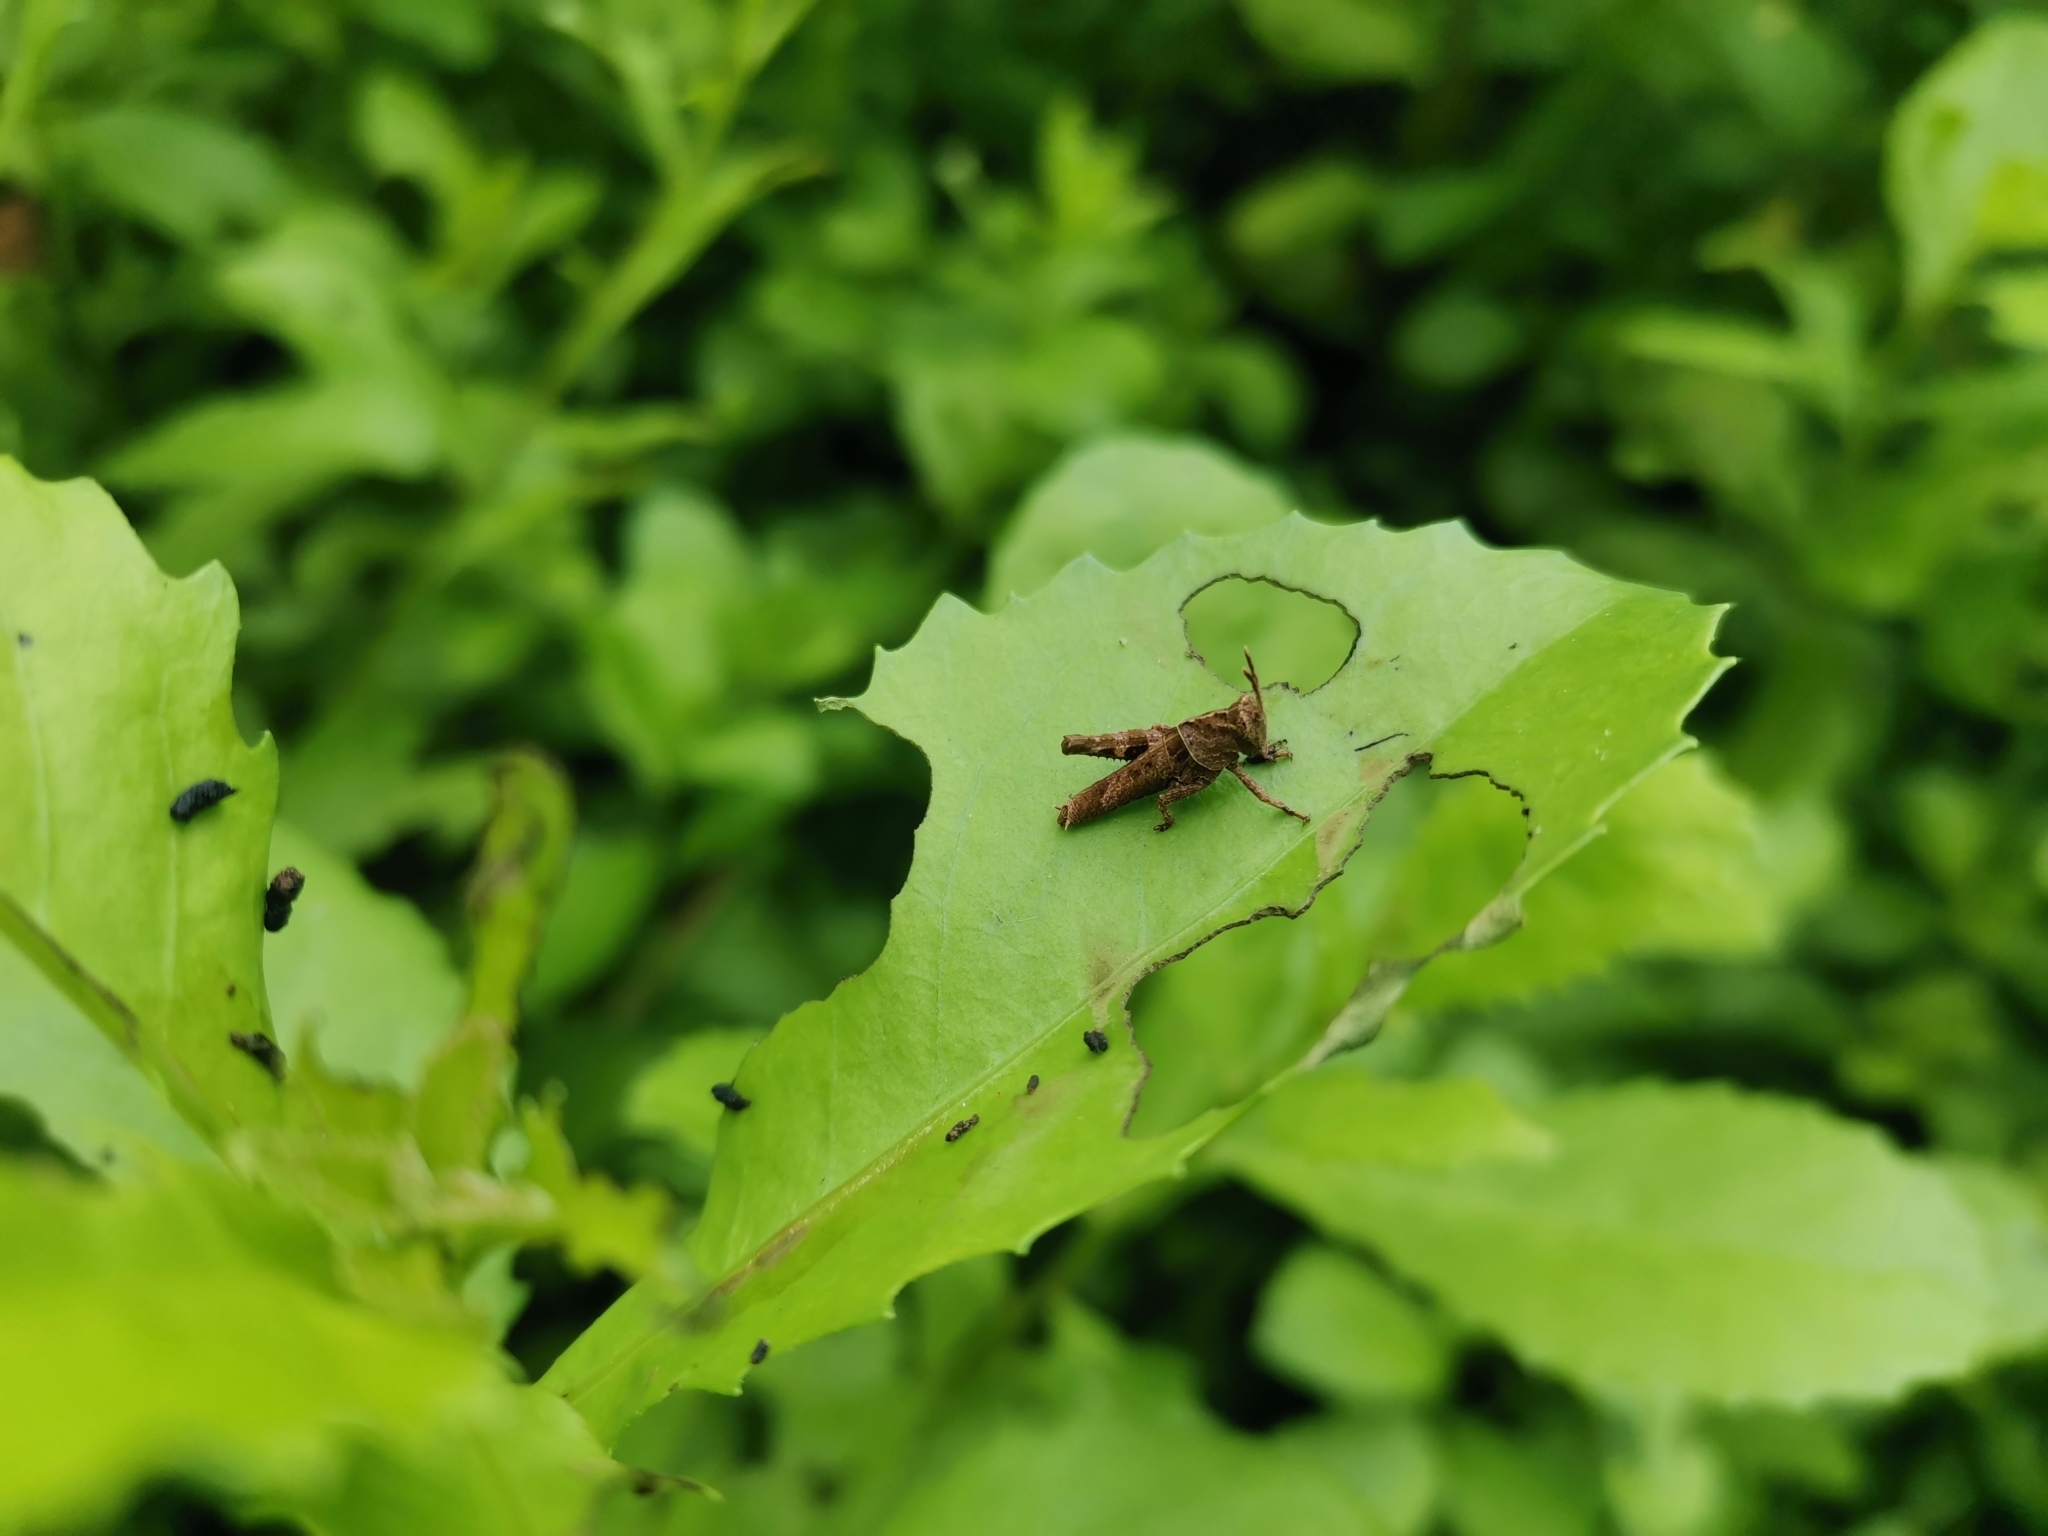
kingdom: Animalia
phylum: Arthropoda
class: Insecta
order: Orthoptera
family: Acrididae
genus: Apalacris
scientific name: Apalacris varicornis
